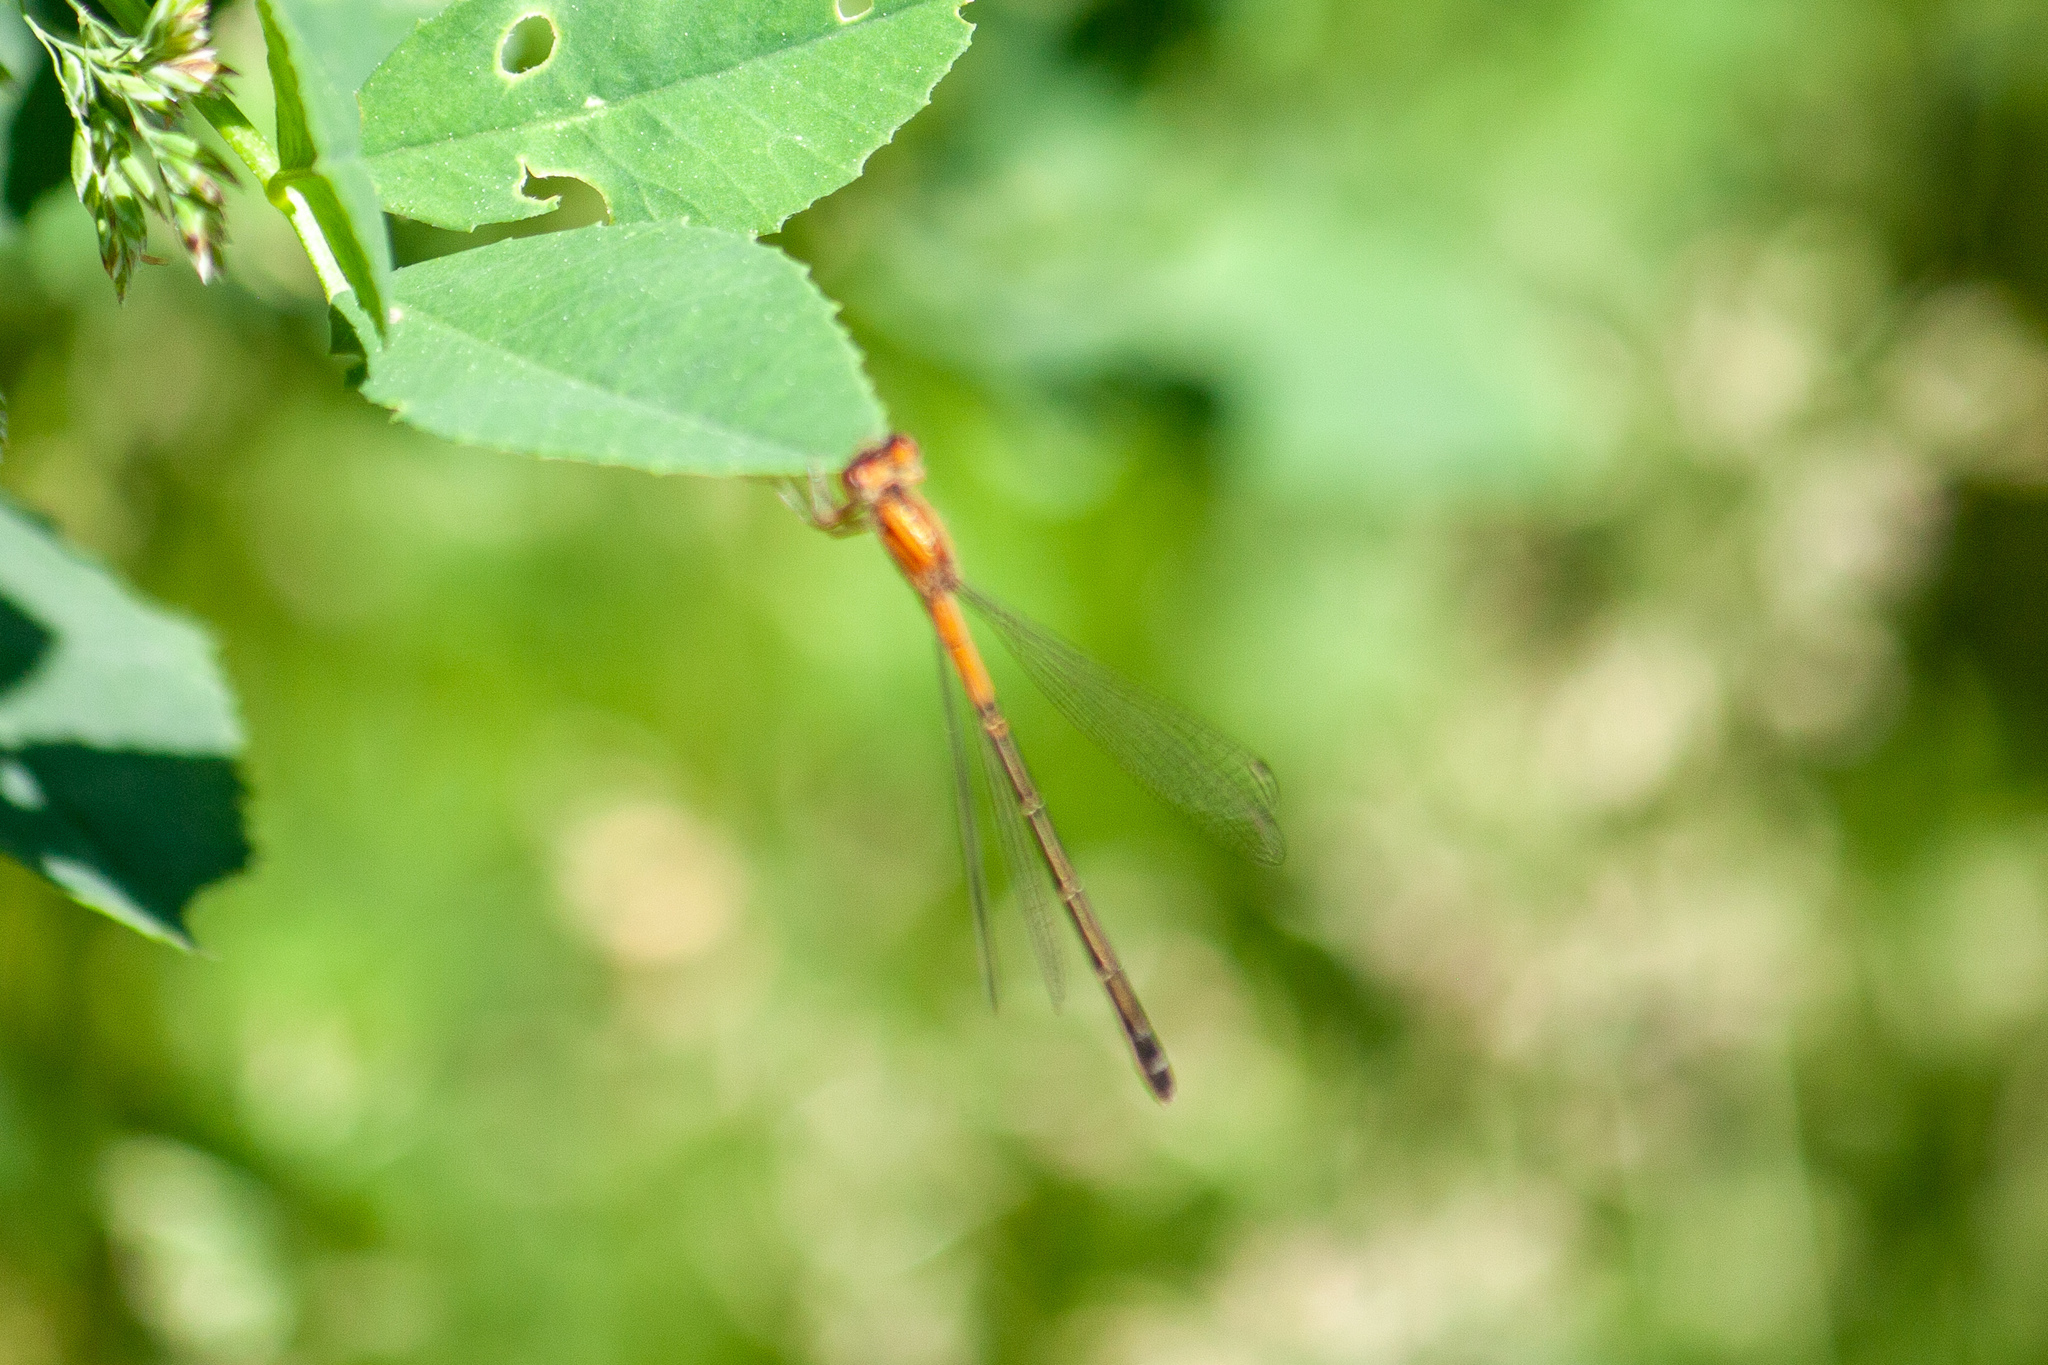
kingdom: Animalia
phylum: Arthropoda
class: Insecta
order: Odonata
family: Coenagrionidae
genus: Ischnura
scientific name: Ischnura verticalis
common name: Eastern forktail
